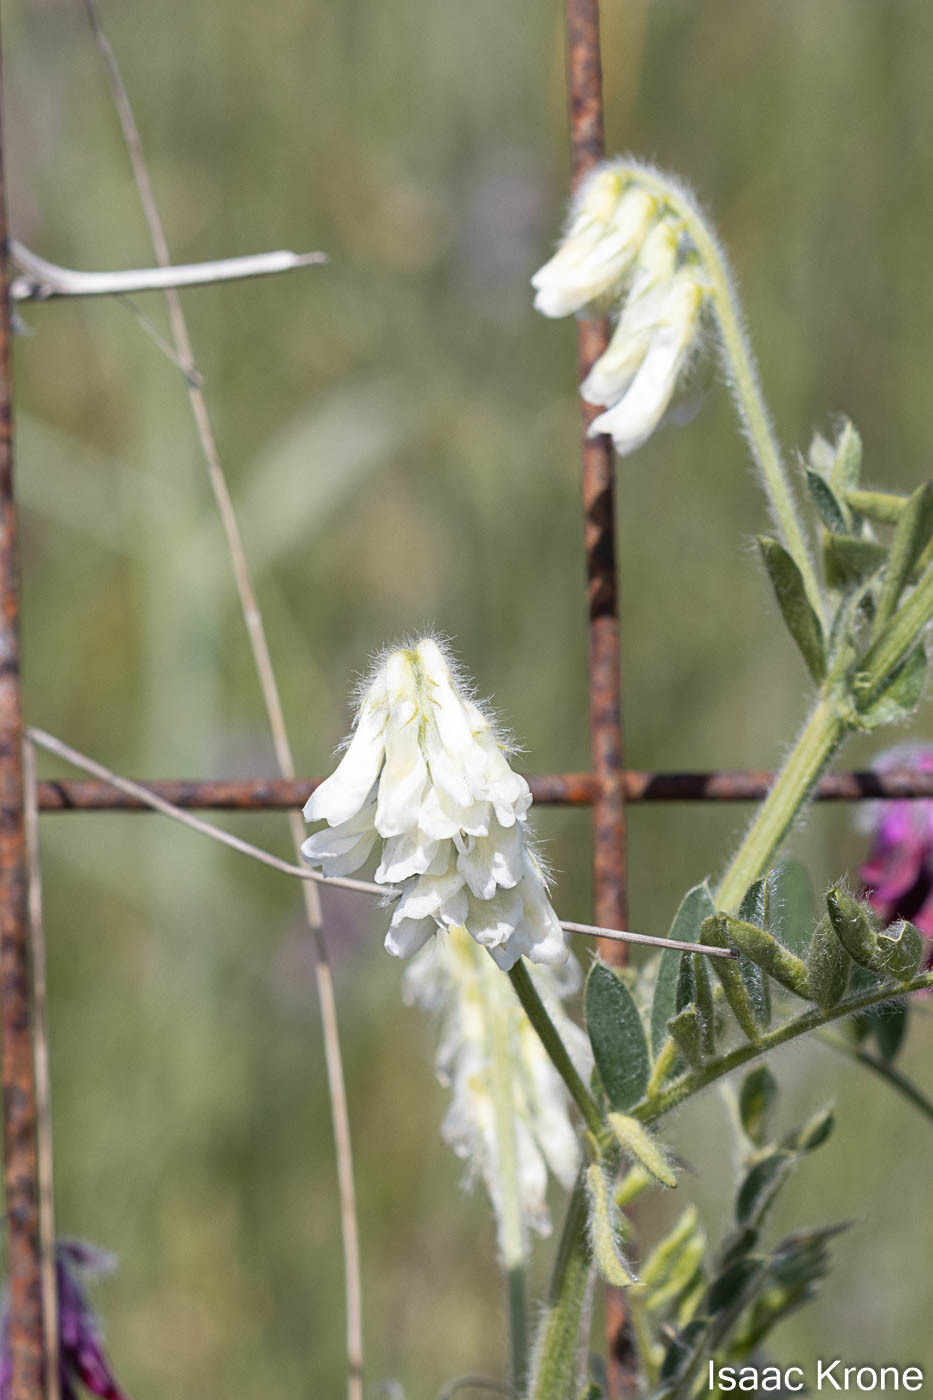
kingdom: Plantae
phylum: Tracheophyta
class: Magnoliopsida
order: Fabales
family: Fabaceae
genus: Vicia
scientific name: Vicia benghalensis
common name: Purple vetch
